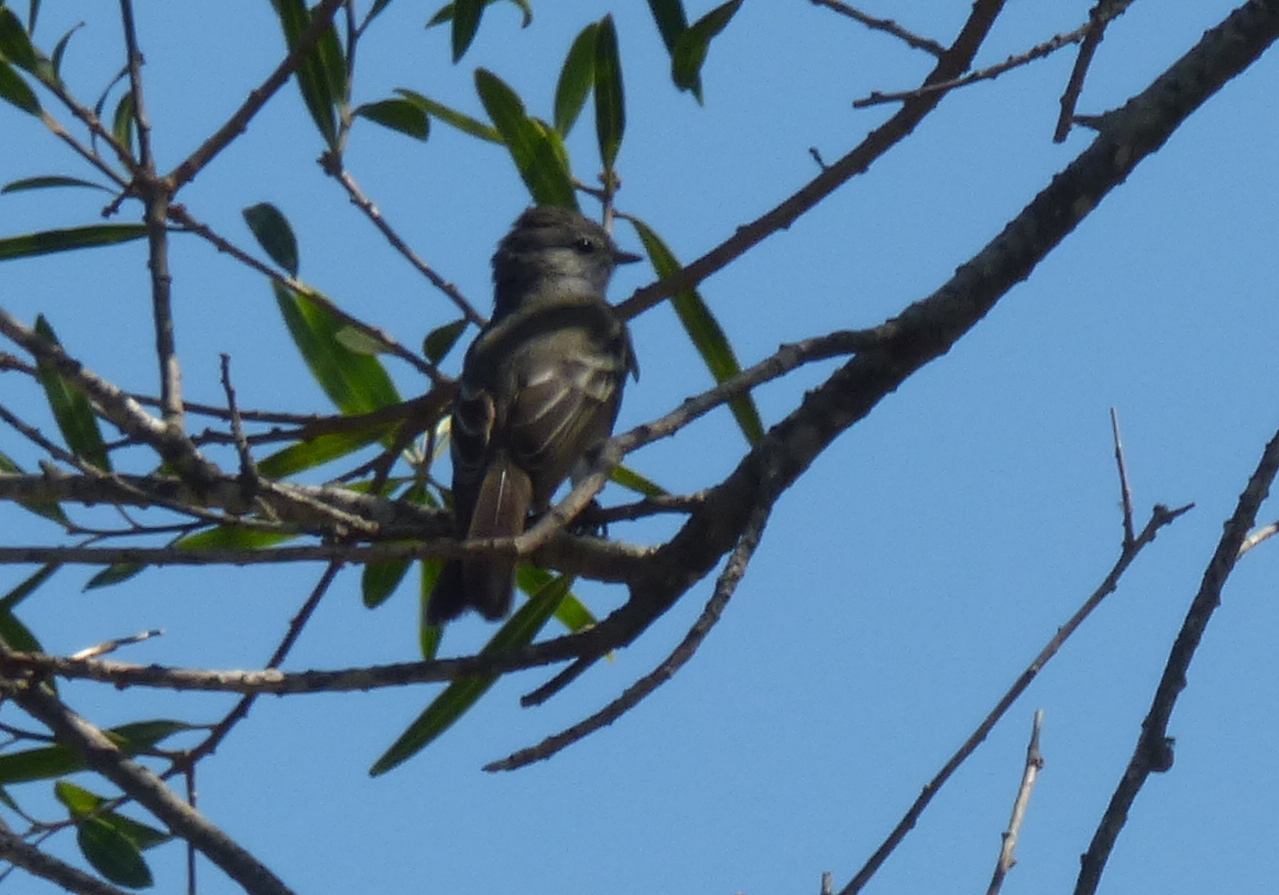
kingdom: Animalia
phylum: Chordata
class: Aves
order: Passeriformes
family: Tyrannidae
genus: Sublegatus
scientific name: Sublegatus modestus
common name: Southern scrub flycatcher
